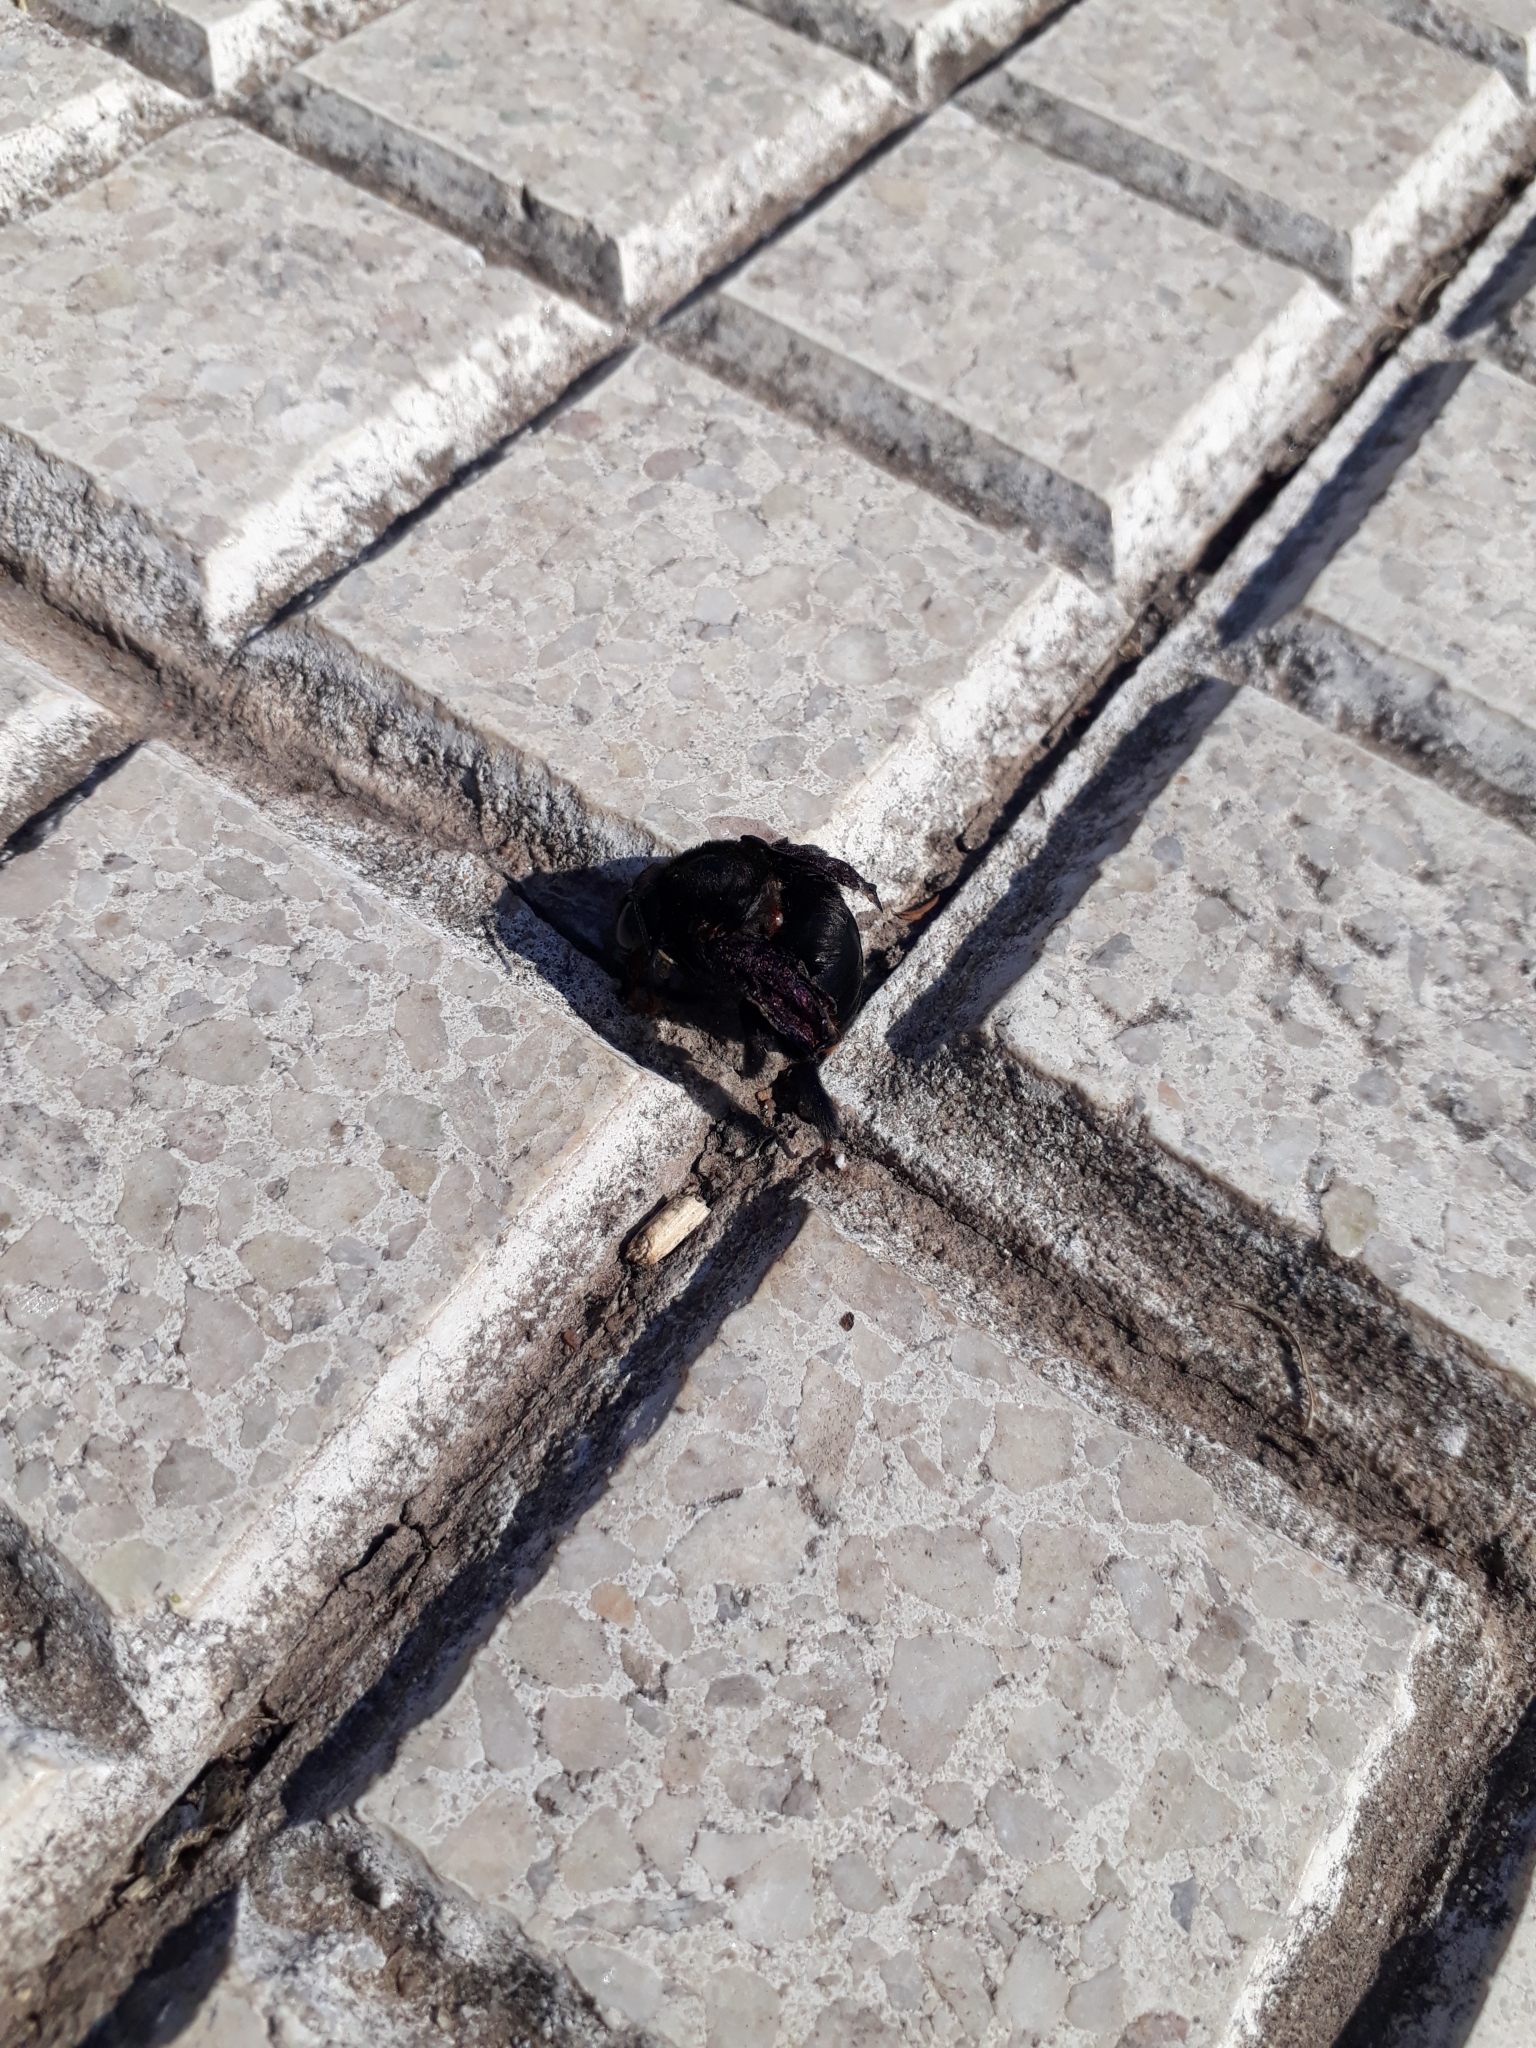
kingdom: Animalia
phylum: Arthropoda
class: Insecta
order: Hymenoptera
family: Apidae
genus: Xylocopa
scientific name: Xylocopa augusti
